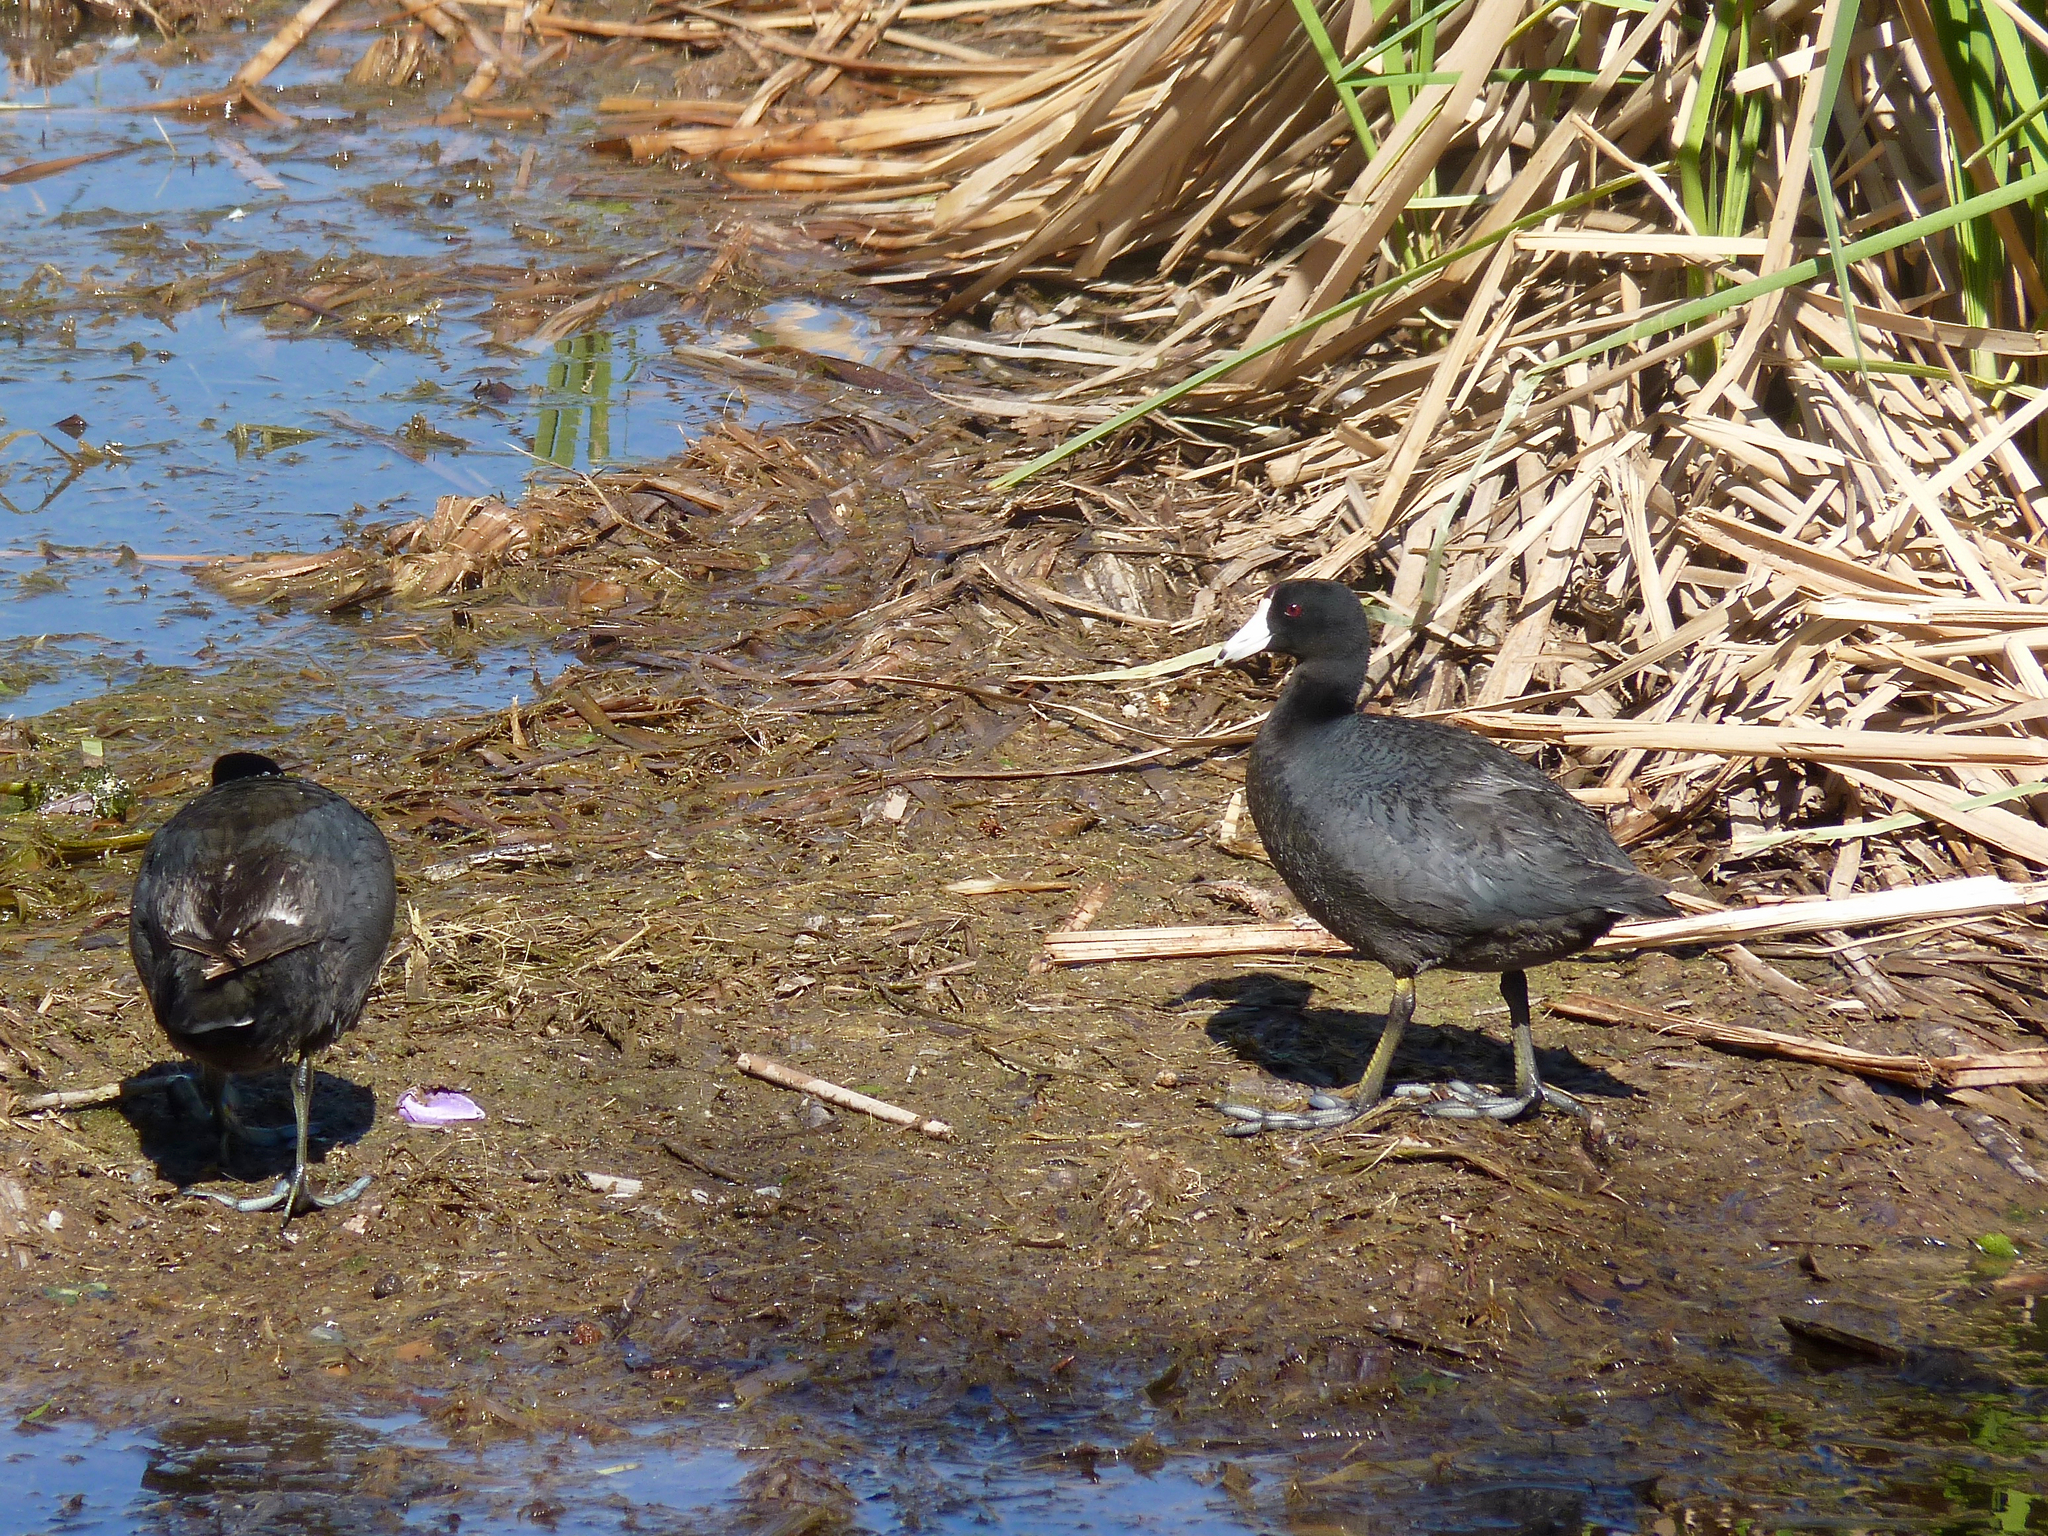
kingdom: Animalia
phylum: Chordata
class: Aves
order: Gruiformes
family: Rallidae
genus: Fulica
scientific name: Fulica americana
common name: American coot
